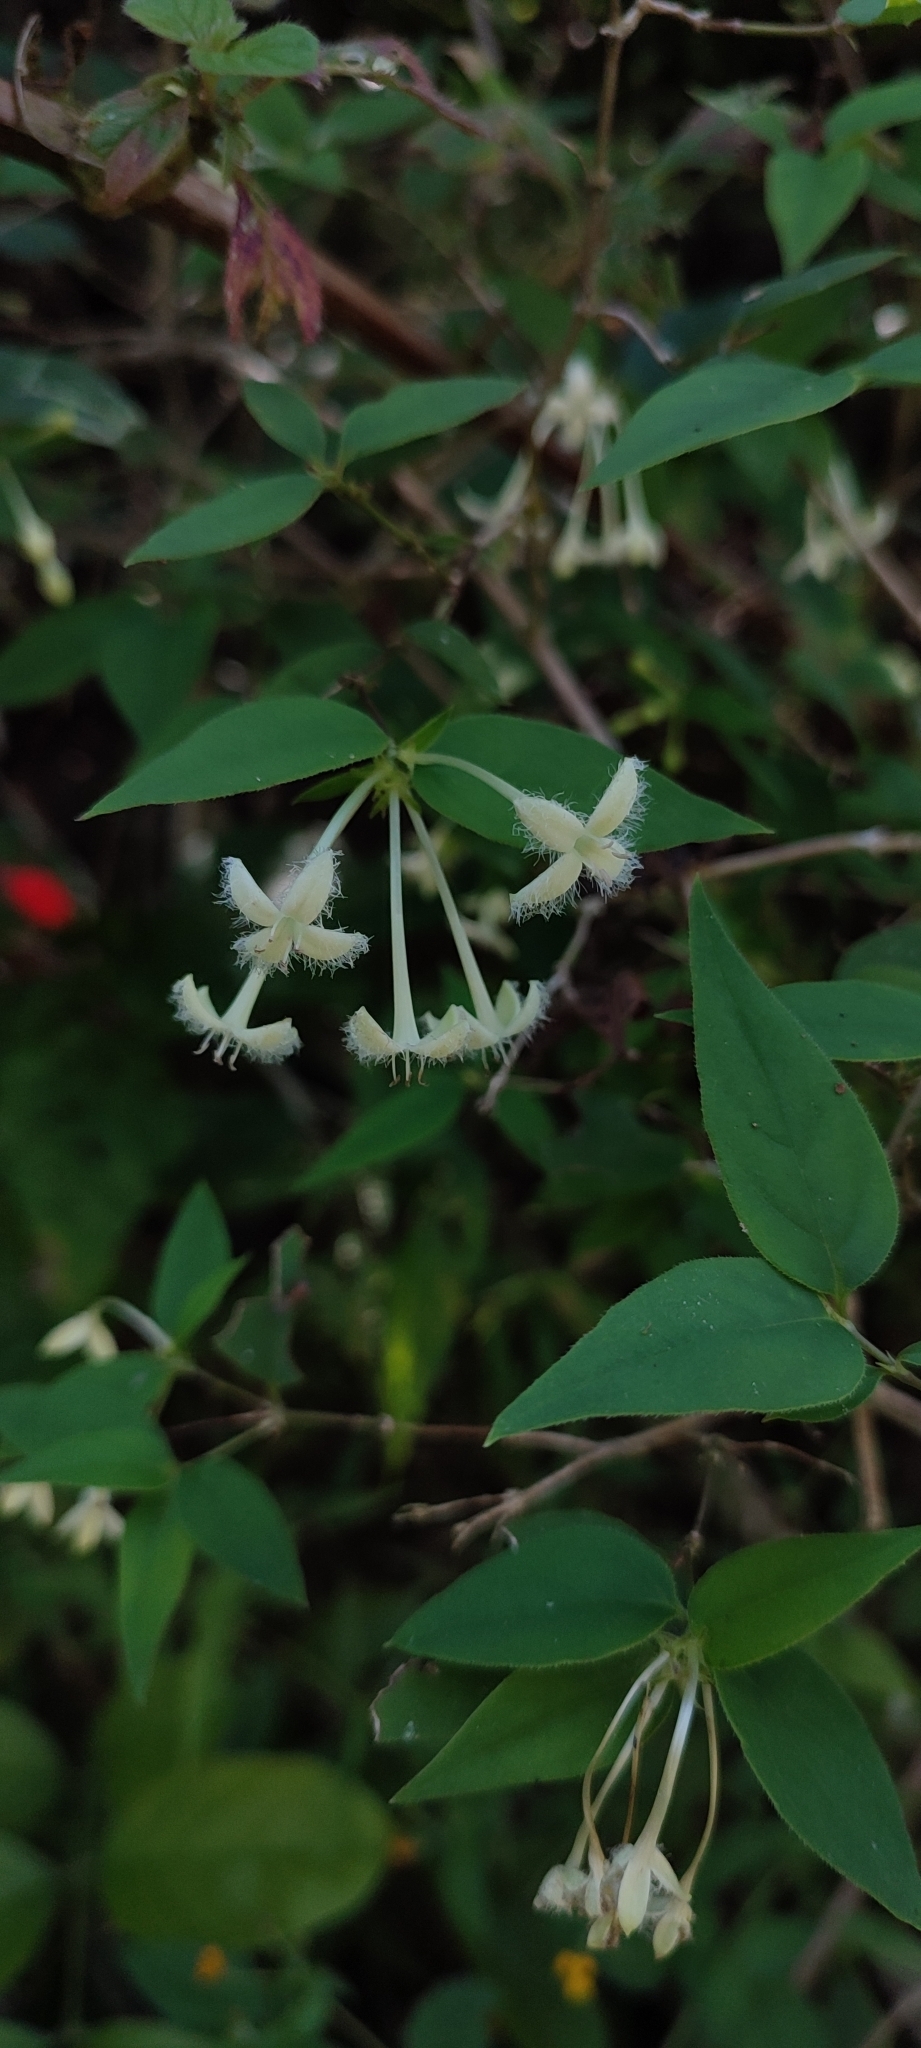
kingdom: Plantae
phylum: Tracheophyta
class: Magnoliopsida
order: Gentianales
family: Rubiaceae
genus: Bouvardia
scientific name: Bouvardia lottiae
